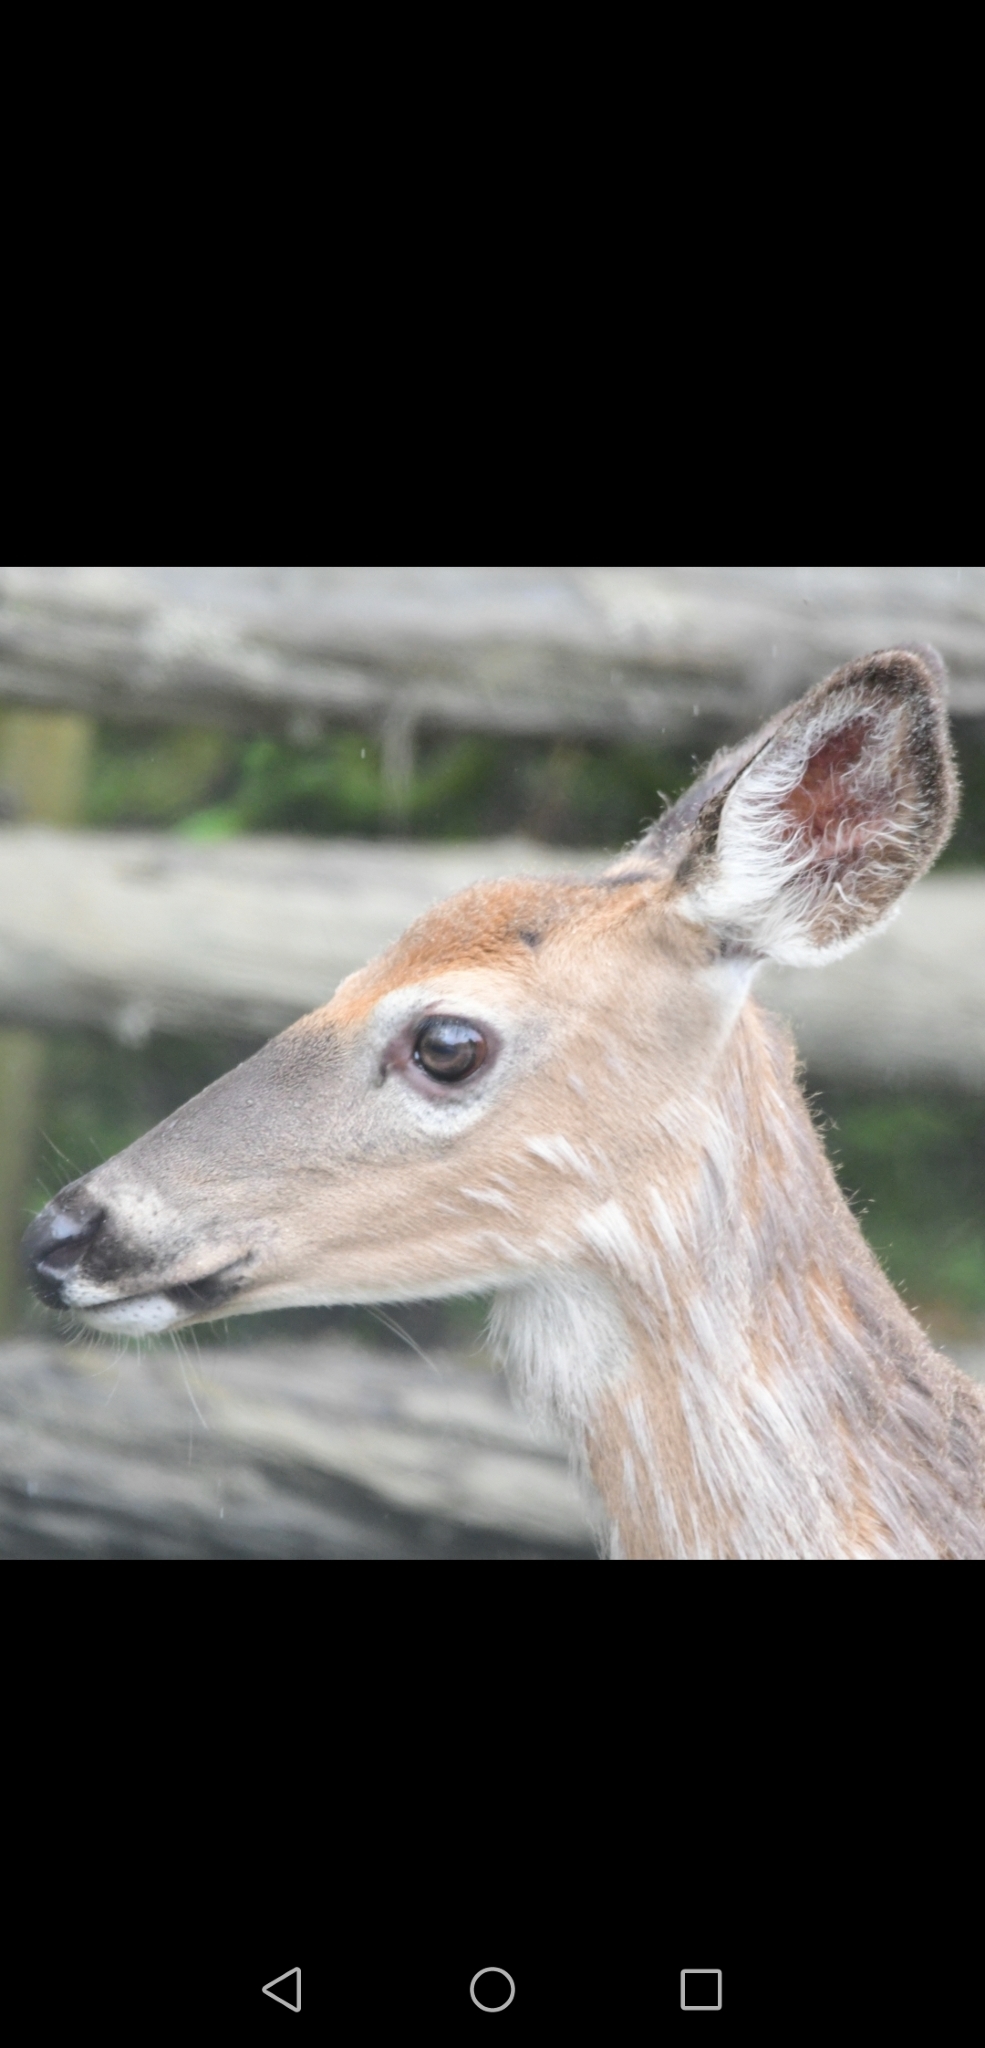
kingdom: Animalia
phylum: Chordata
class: Mammalia
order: Artiodactyla
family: Cervidae
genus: Odocoileus
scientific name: Odocoileus virginianus
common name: White-tailed deer
